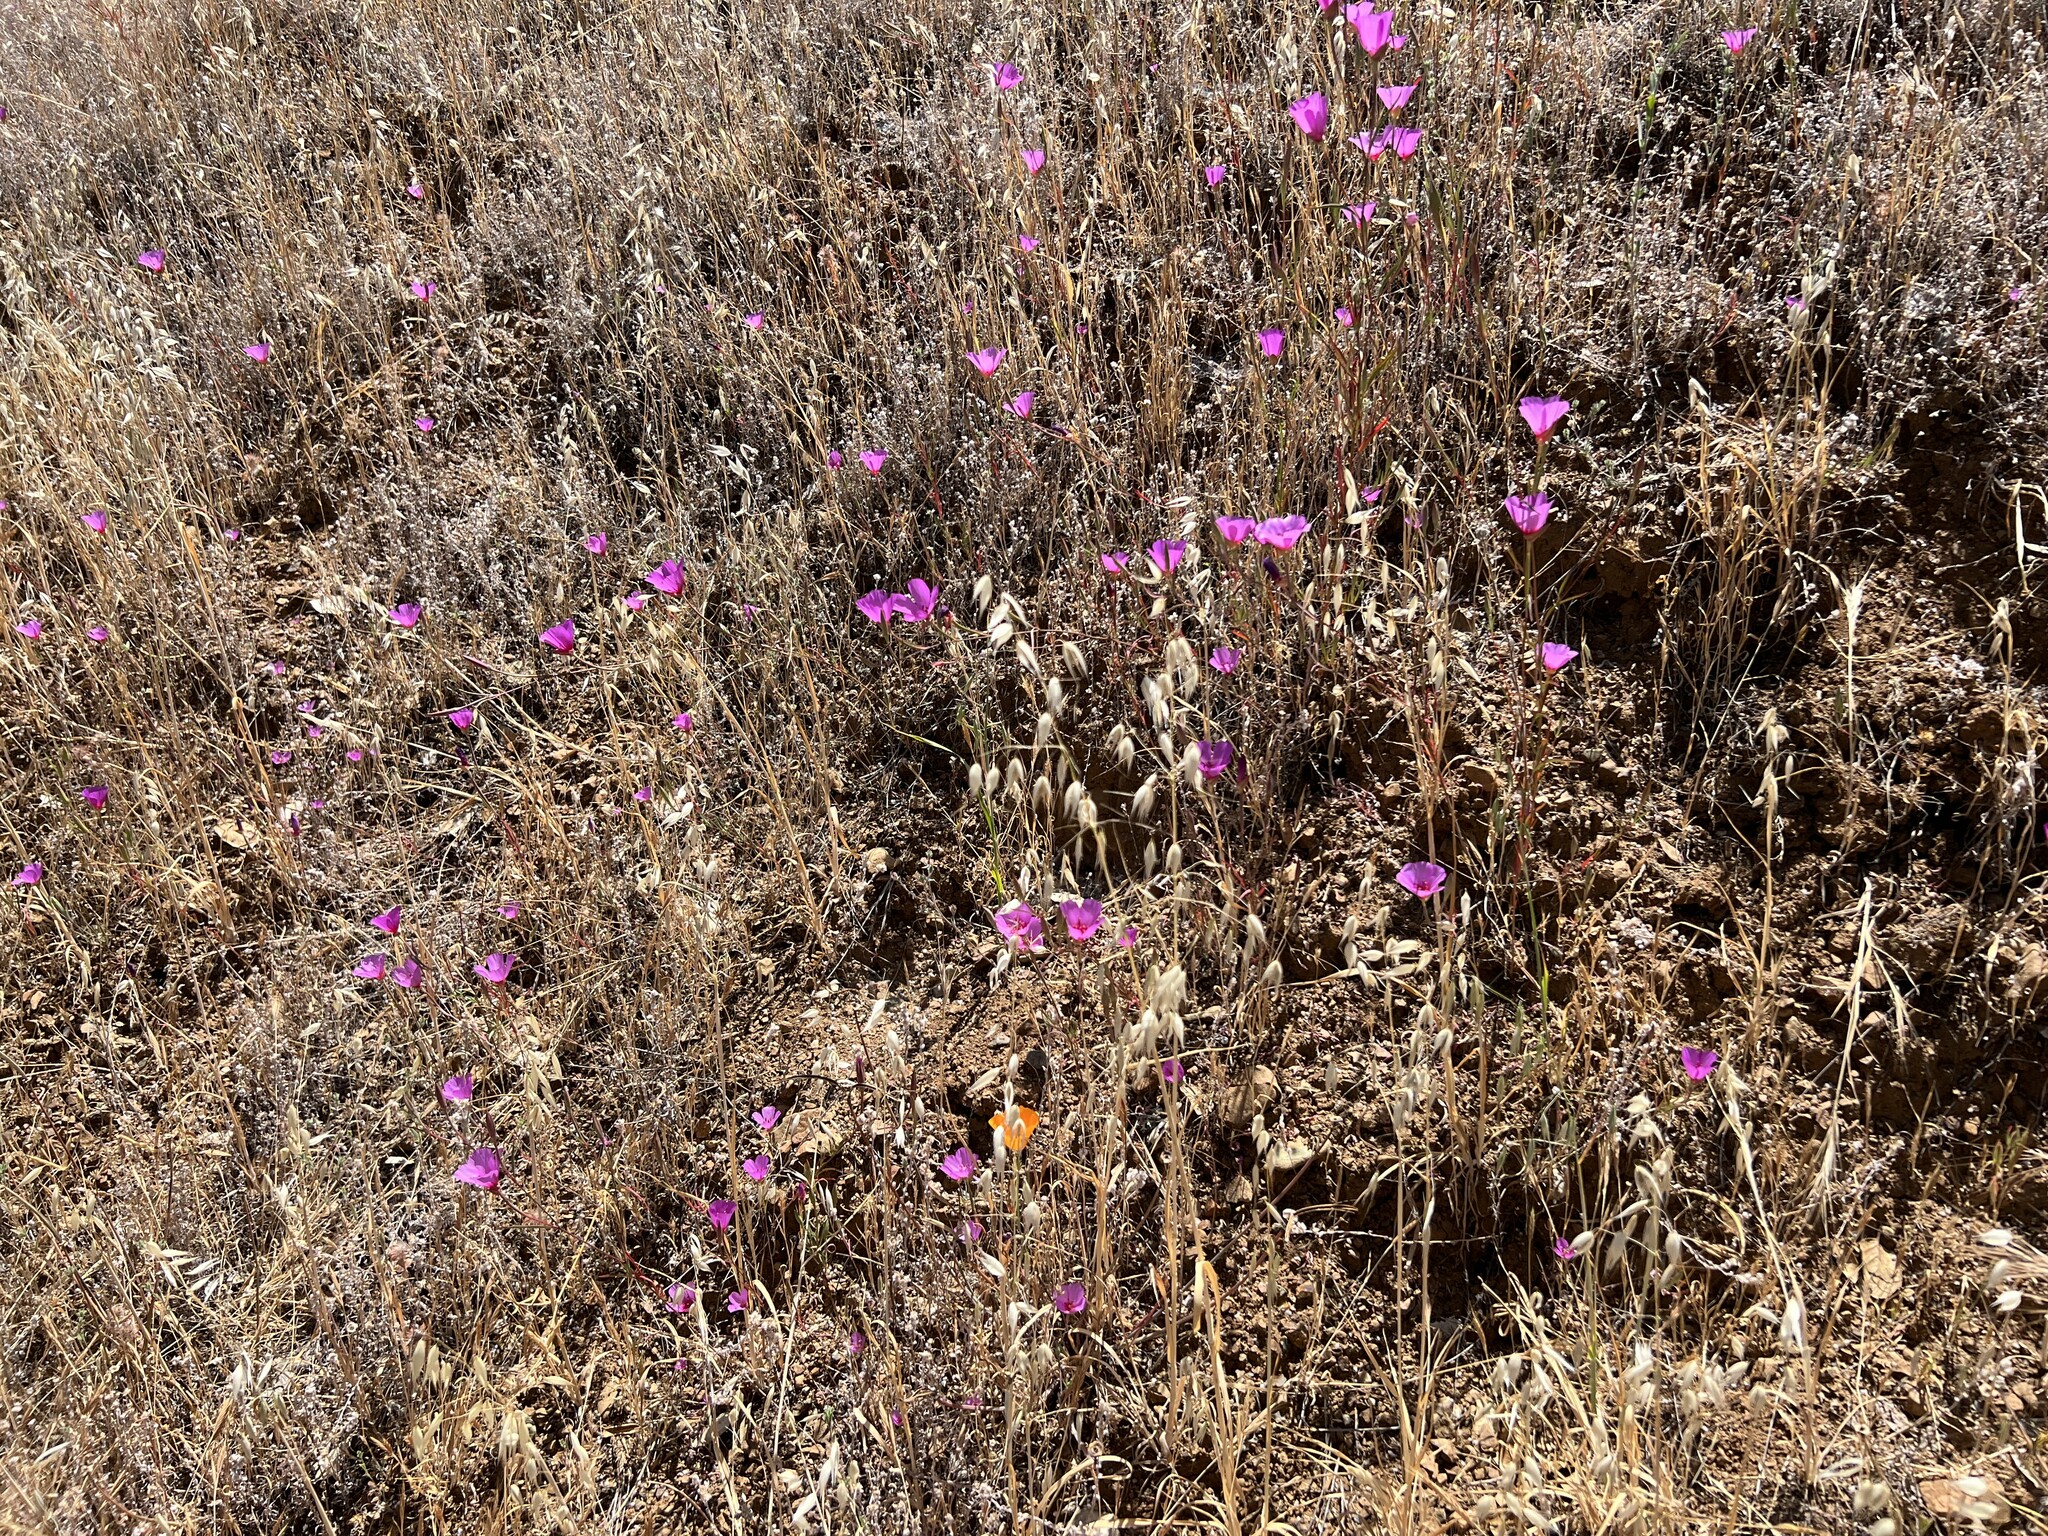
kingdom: Plantae
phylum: Tracheophyta
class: Magnoliopsida
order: Myrtales
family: Onagraceae
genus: Clarkia
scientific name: Clarkia rubicunda
